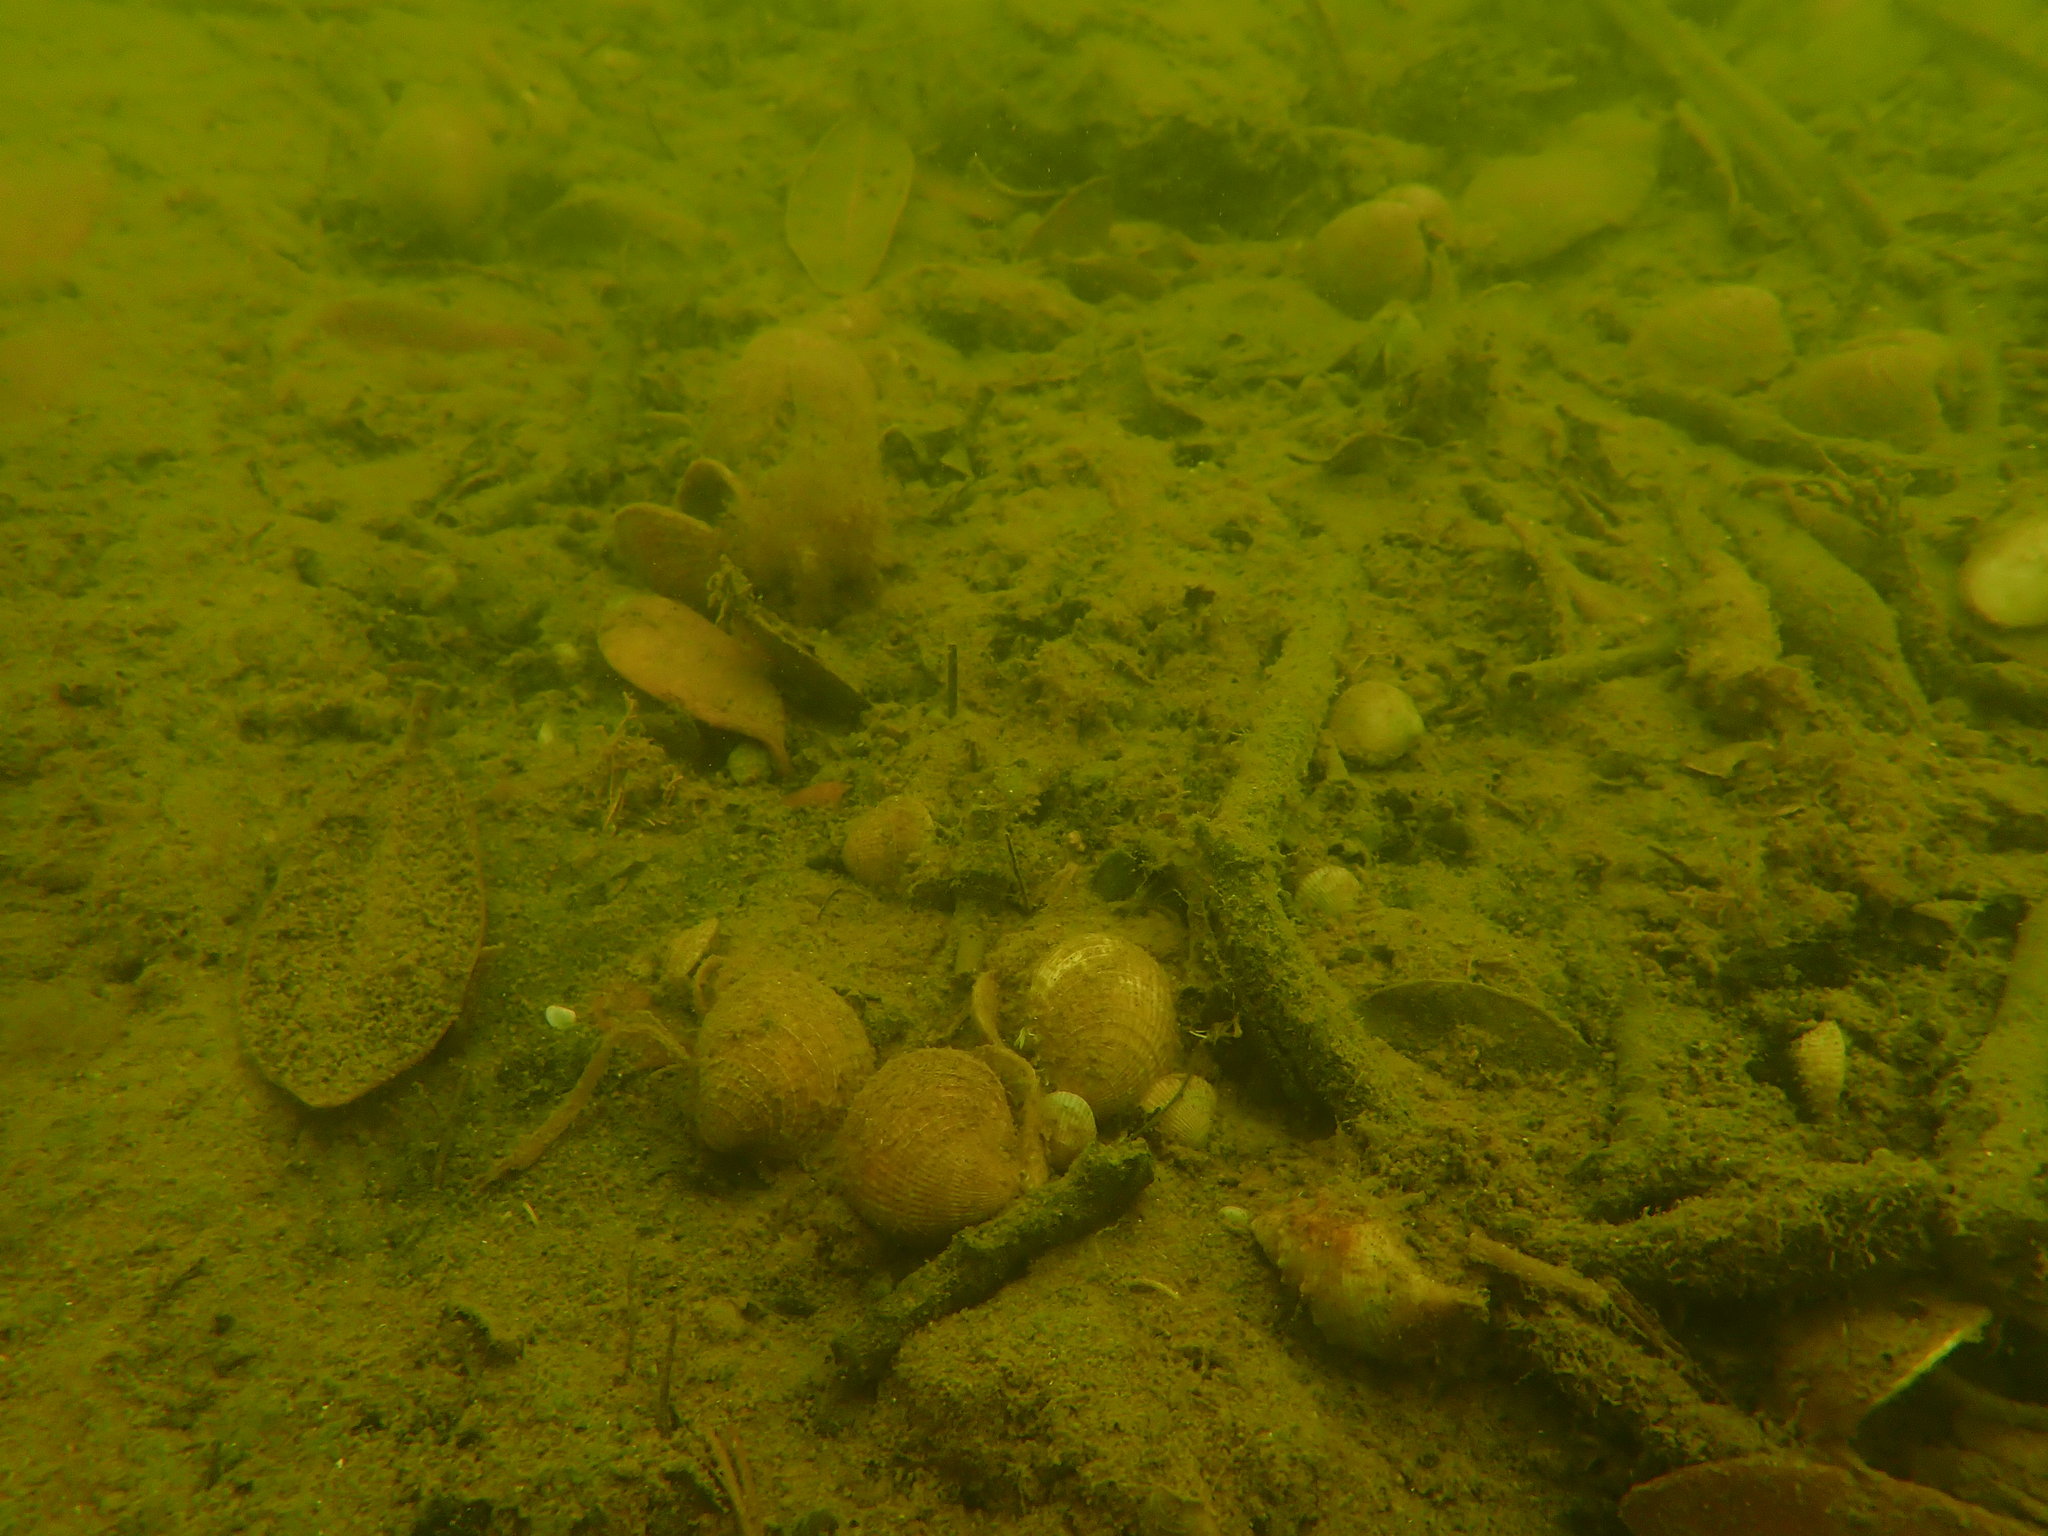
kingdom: Animalia
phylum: Mollusca
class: Bivalvia
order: Venerida
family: Veneridae
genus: Austrovenus
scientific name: Austrovenus stutchburyi
